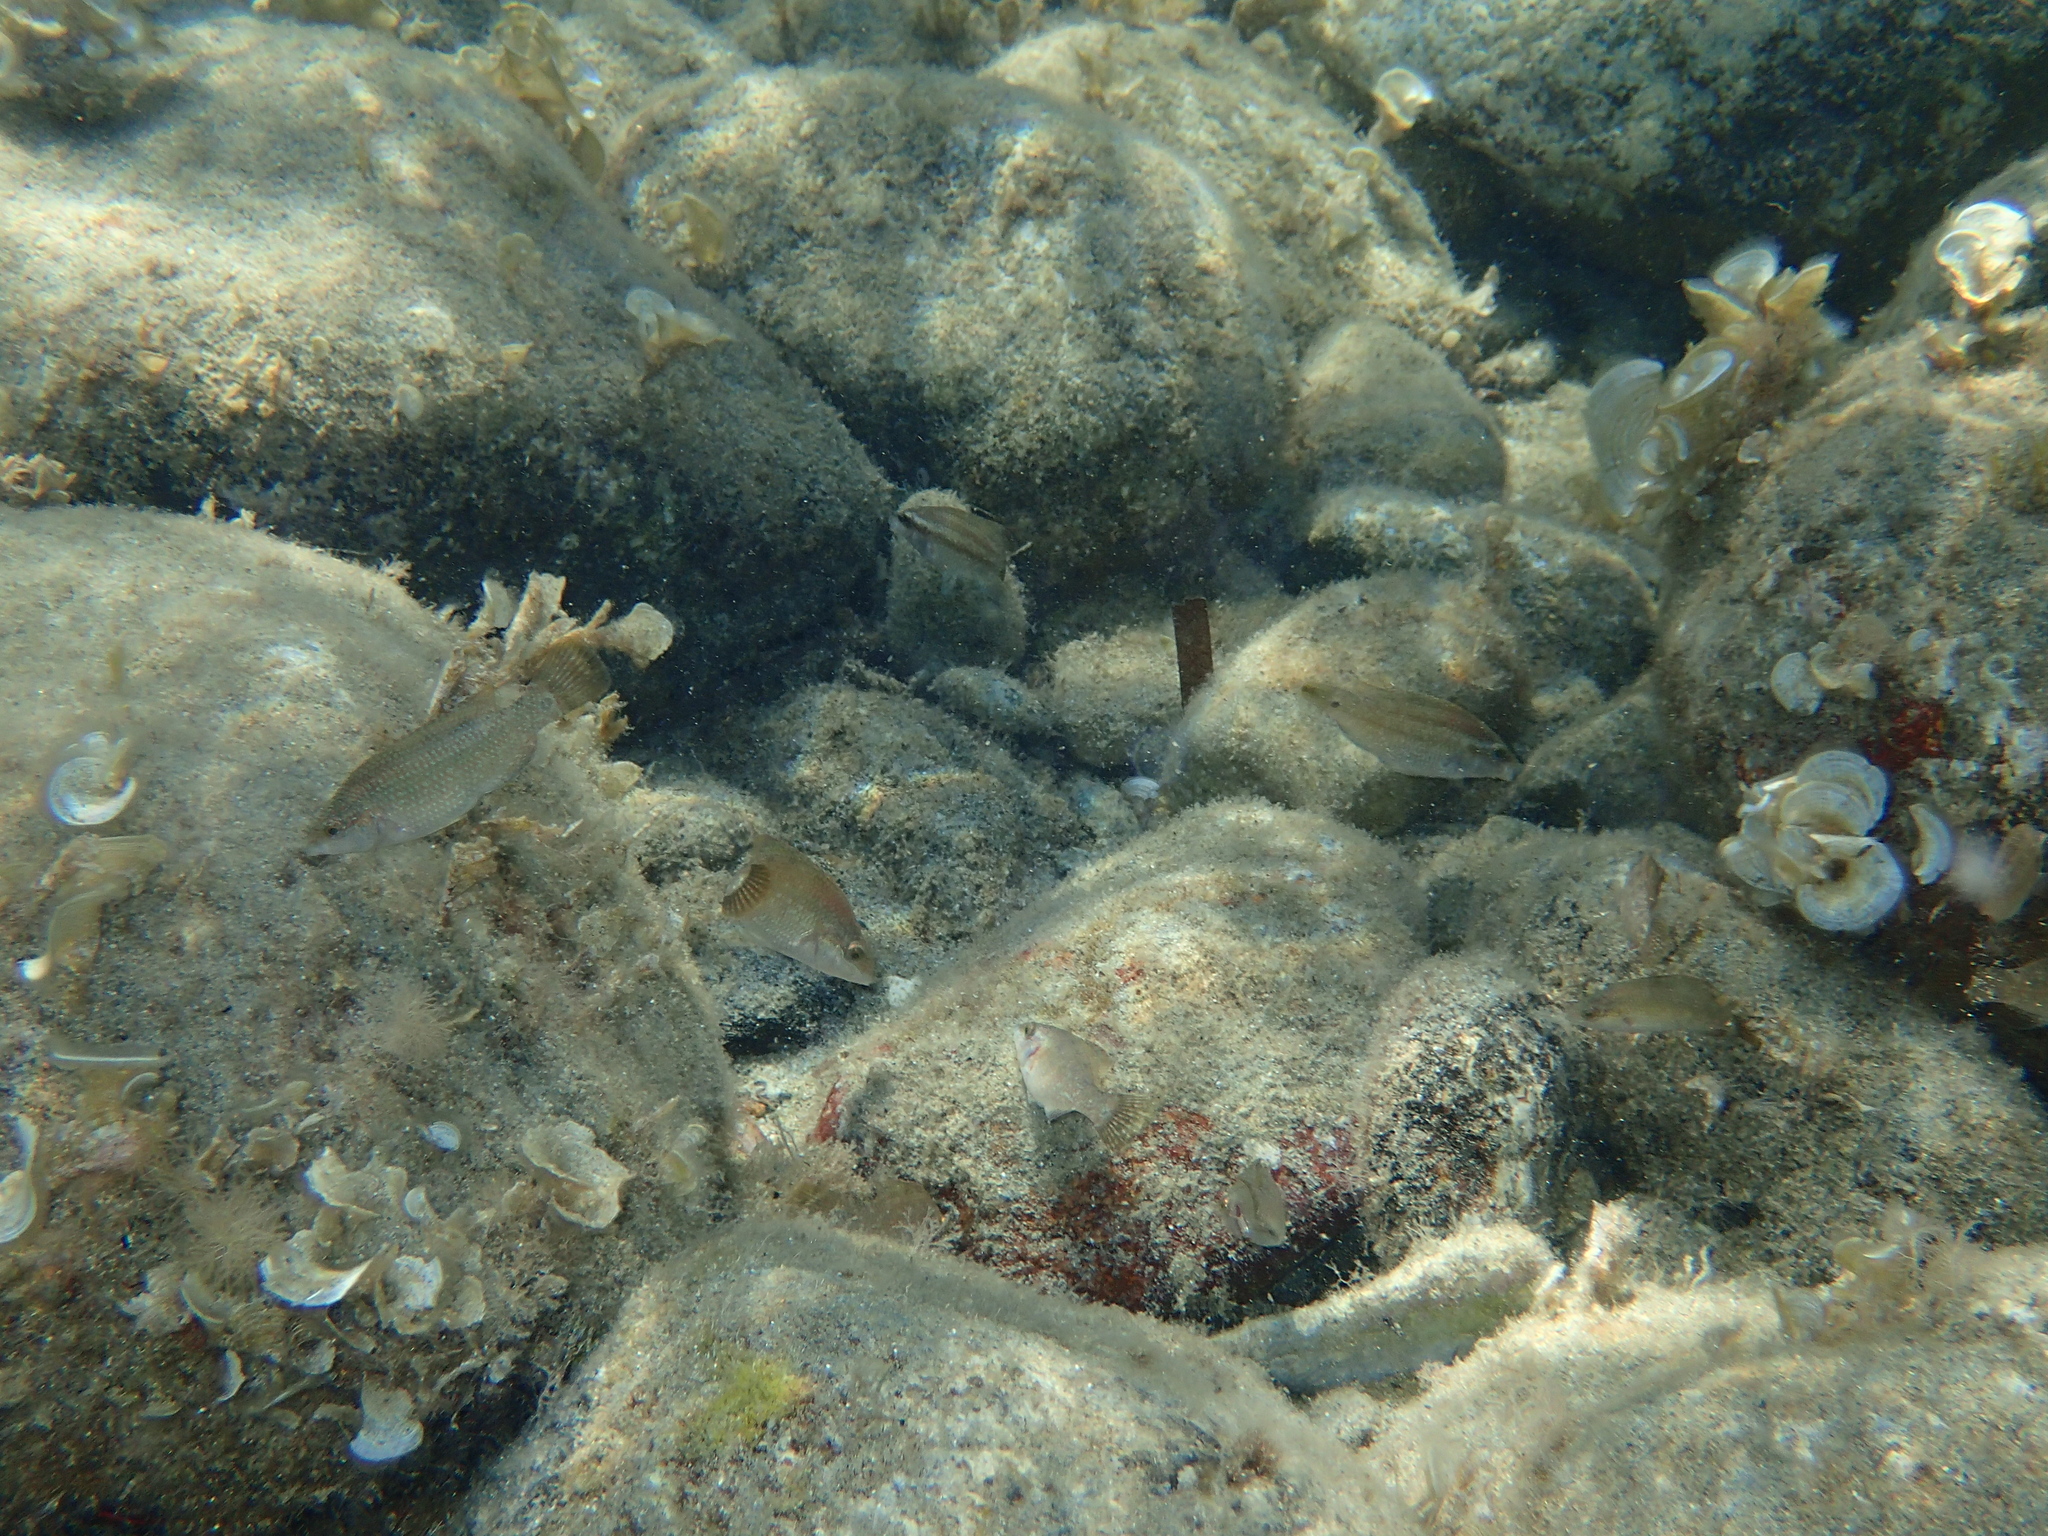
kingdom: Animalia
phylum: Chordata
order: Perciformes
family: Labridae
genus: Symphodus
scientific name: Symphodus tinca
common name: Peacock wrasse
